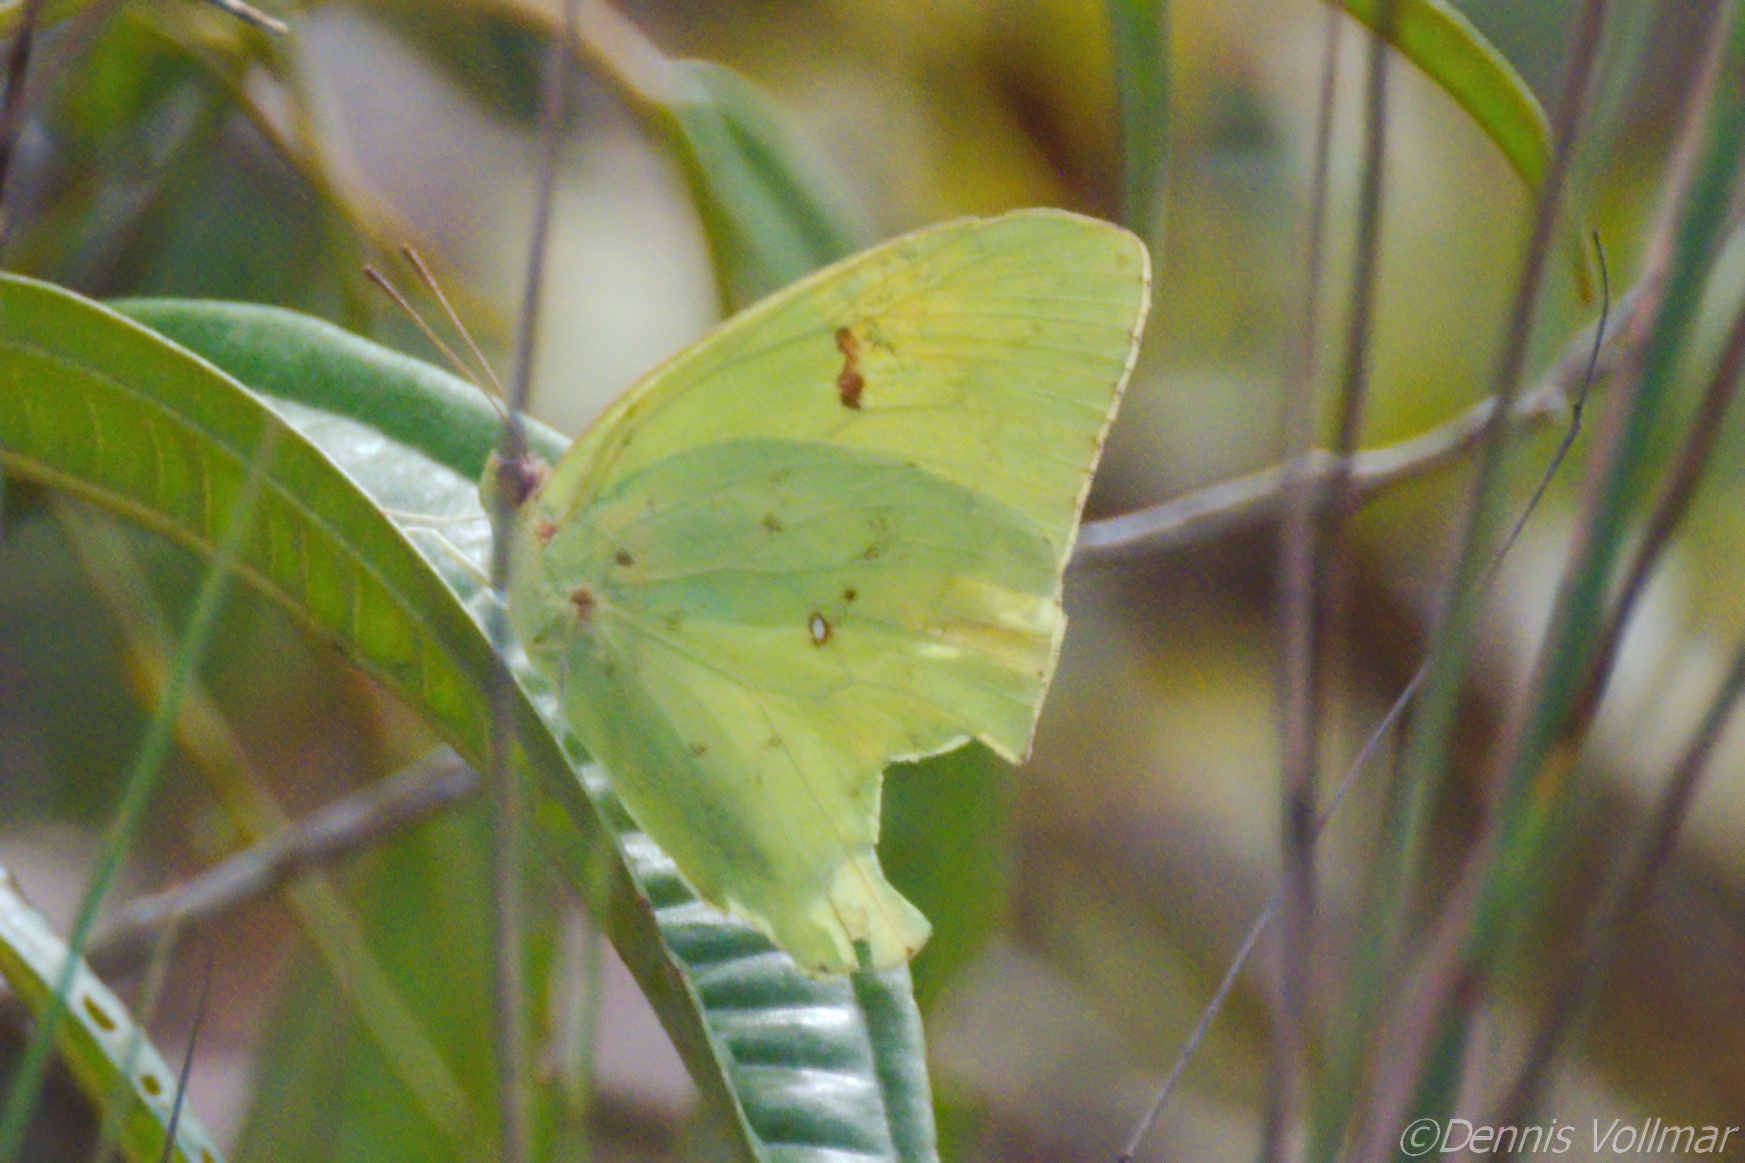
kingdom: Animalia
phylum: Arthropoda
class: Insecta
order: Lepidoptera
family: Pieridae
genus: Phoebis
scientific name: Phoebis sennae
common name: Cloudless sulphur
